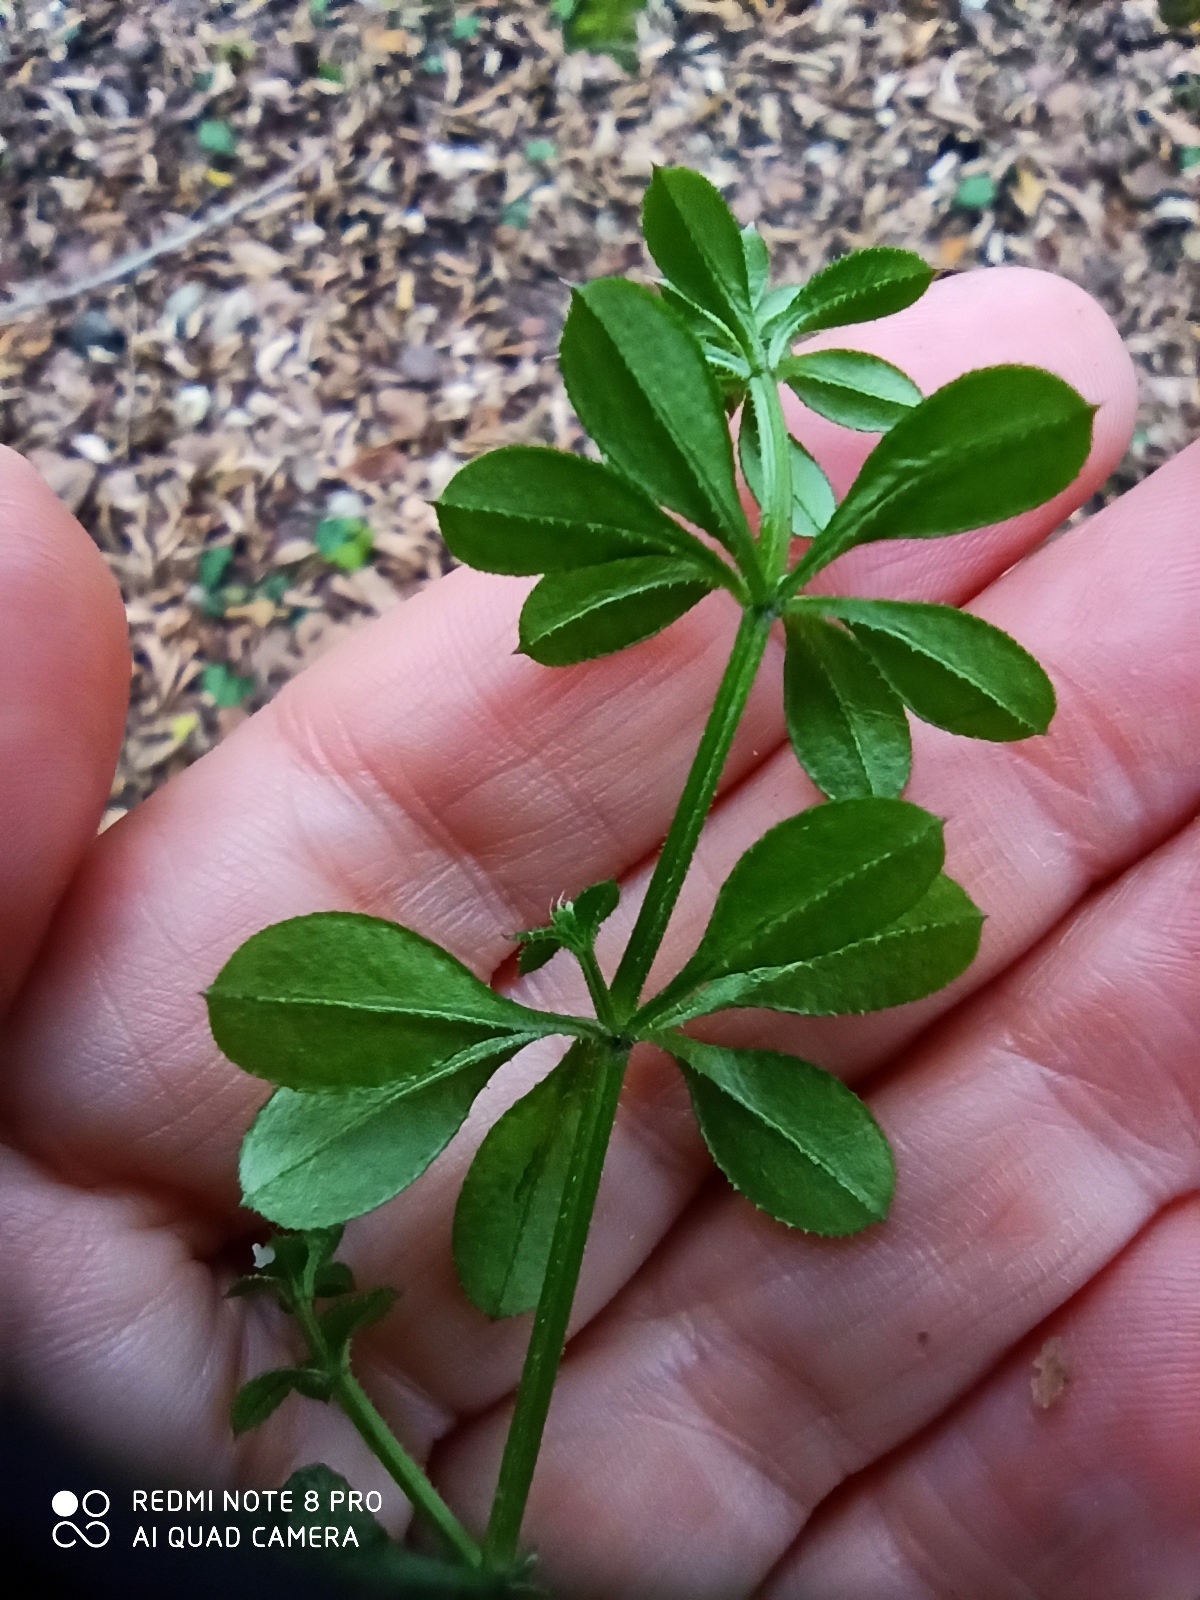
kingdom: Plantae
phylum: Tracheophyta
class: Magnoliopsida
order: Gentianales
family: Rubiaceae
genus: Galium
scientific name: Galium aparine
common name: Cleavers
